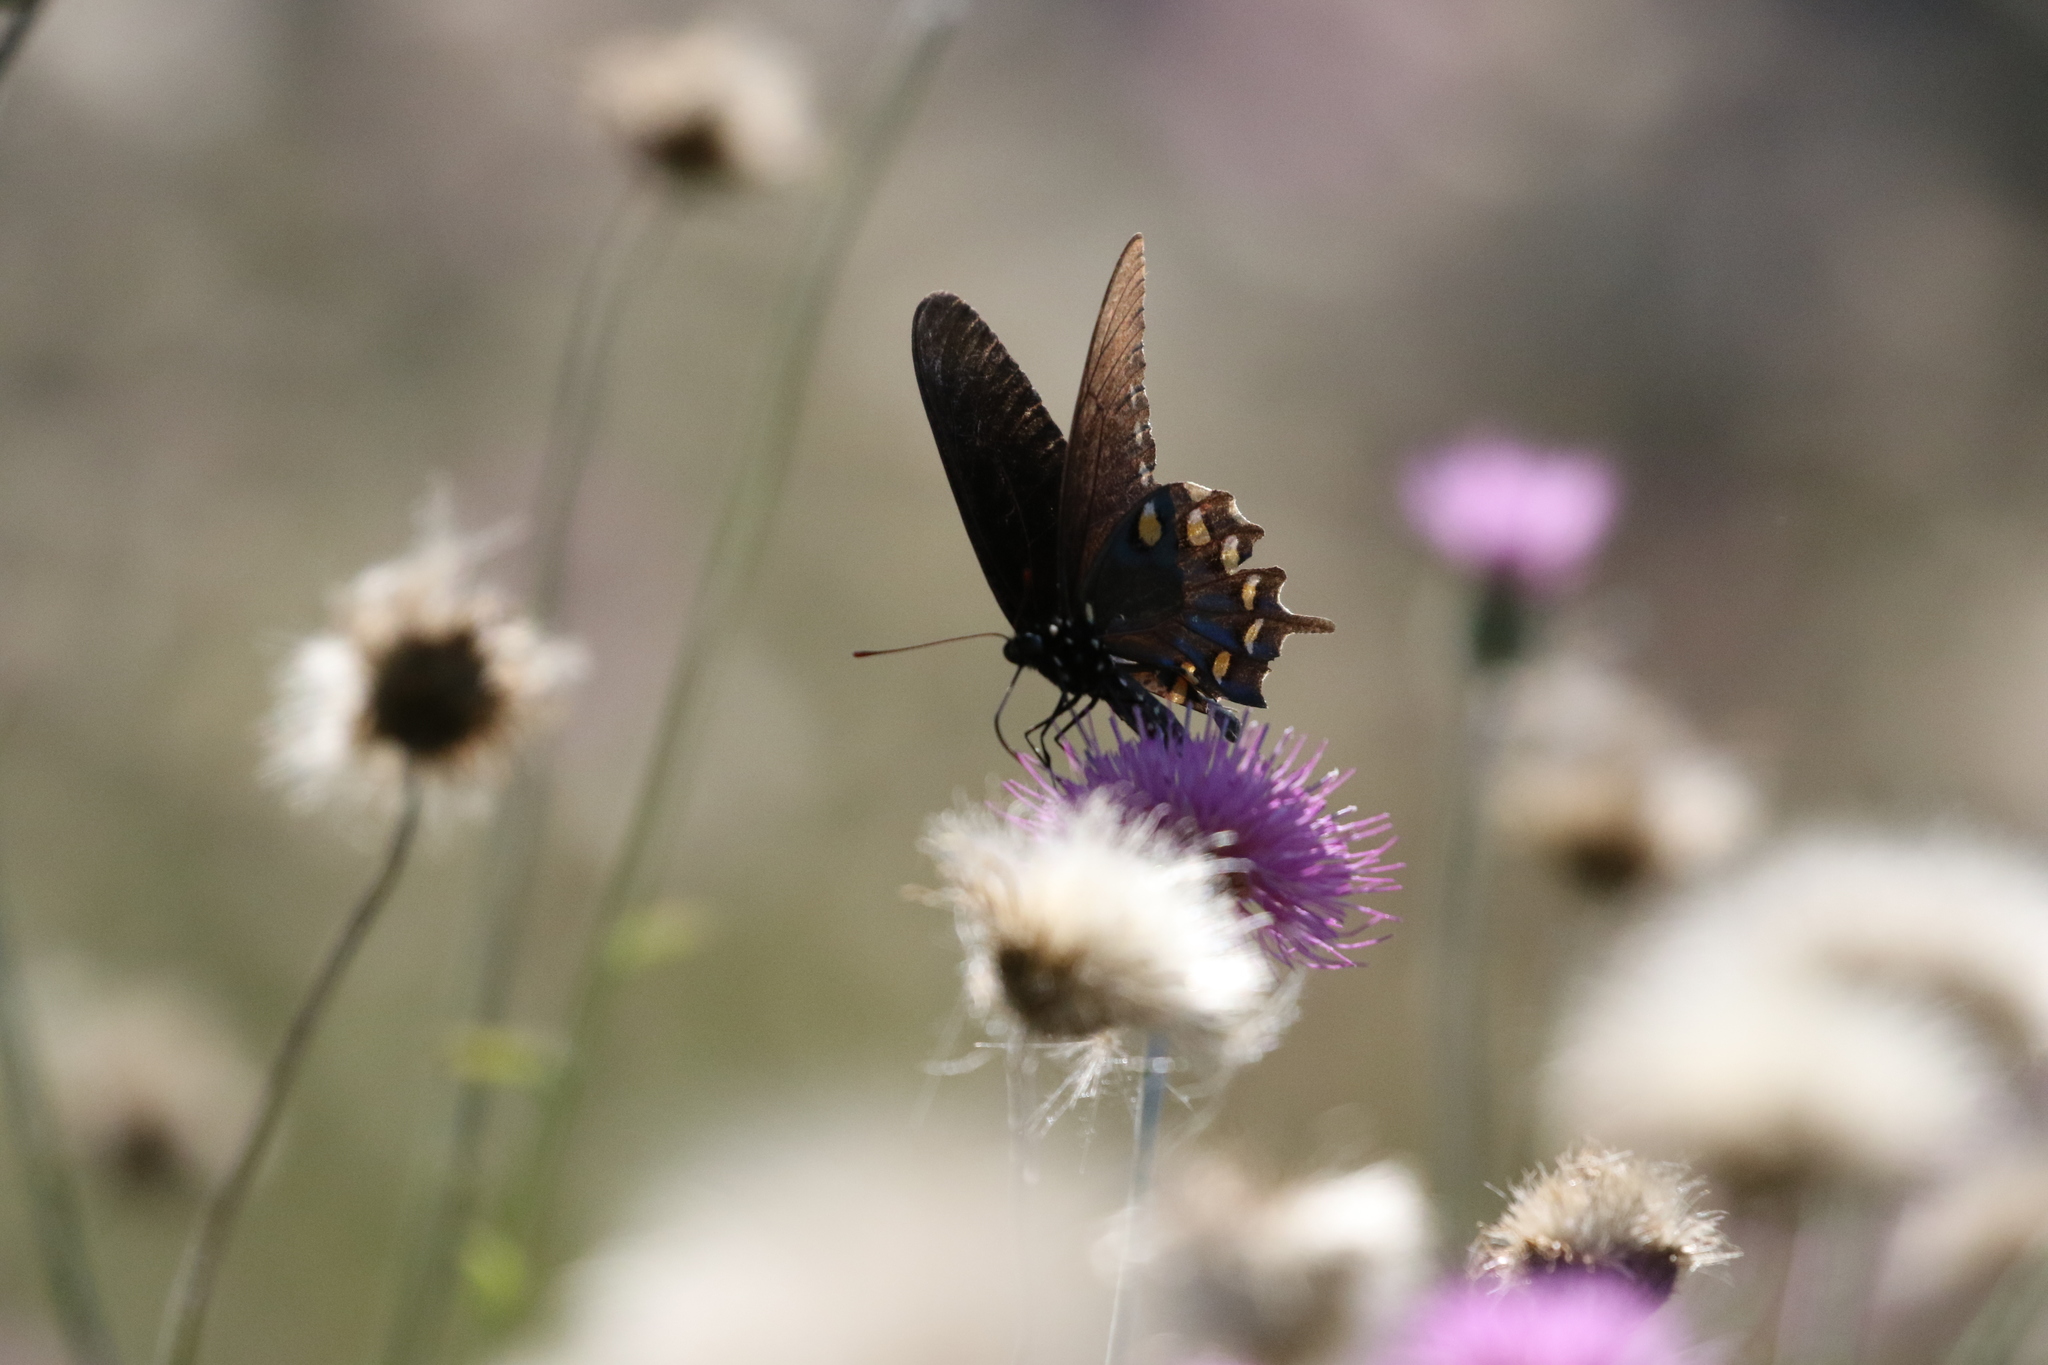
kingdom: Animalia
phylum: Arthropoda
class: Insecta
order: Lepidoptera
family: Papilionidae
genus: Battus
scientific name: Battus philenor
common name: Pipevine swallowtail
